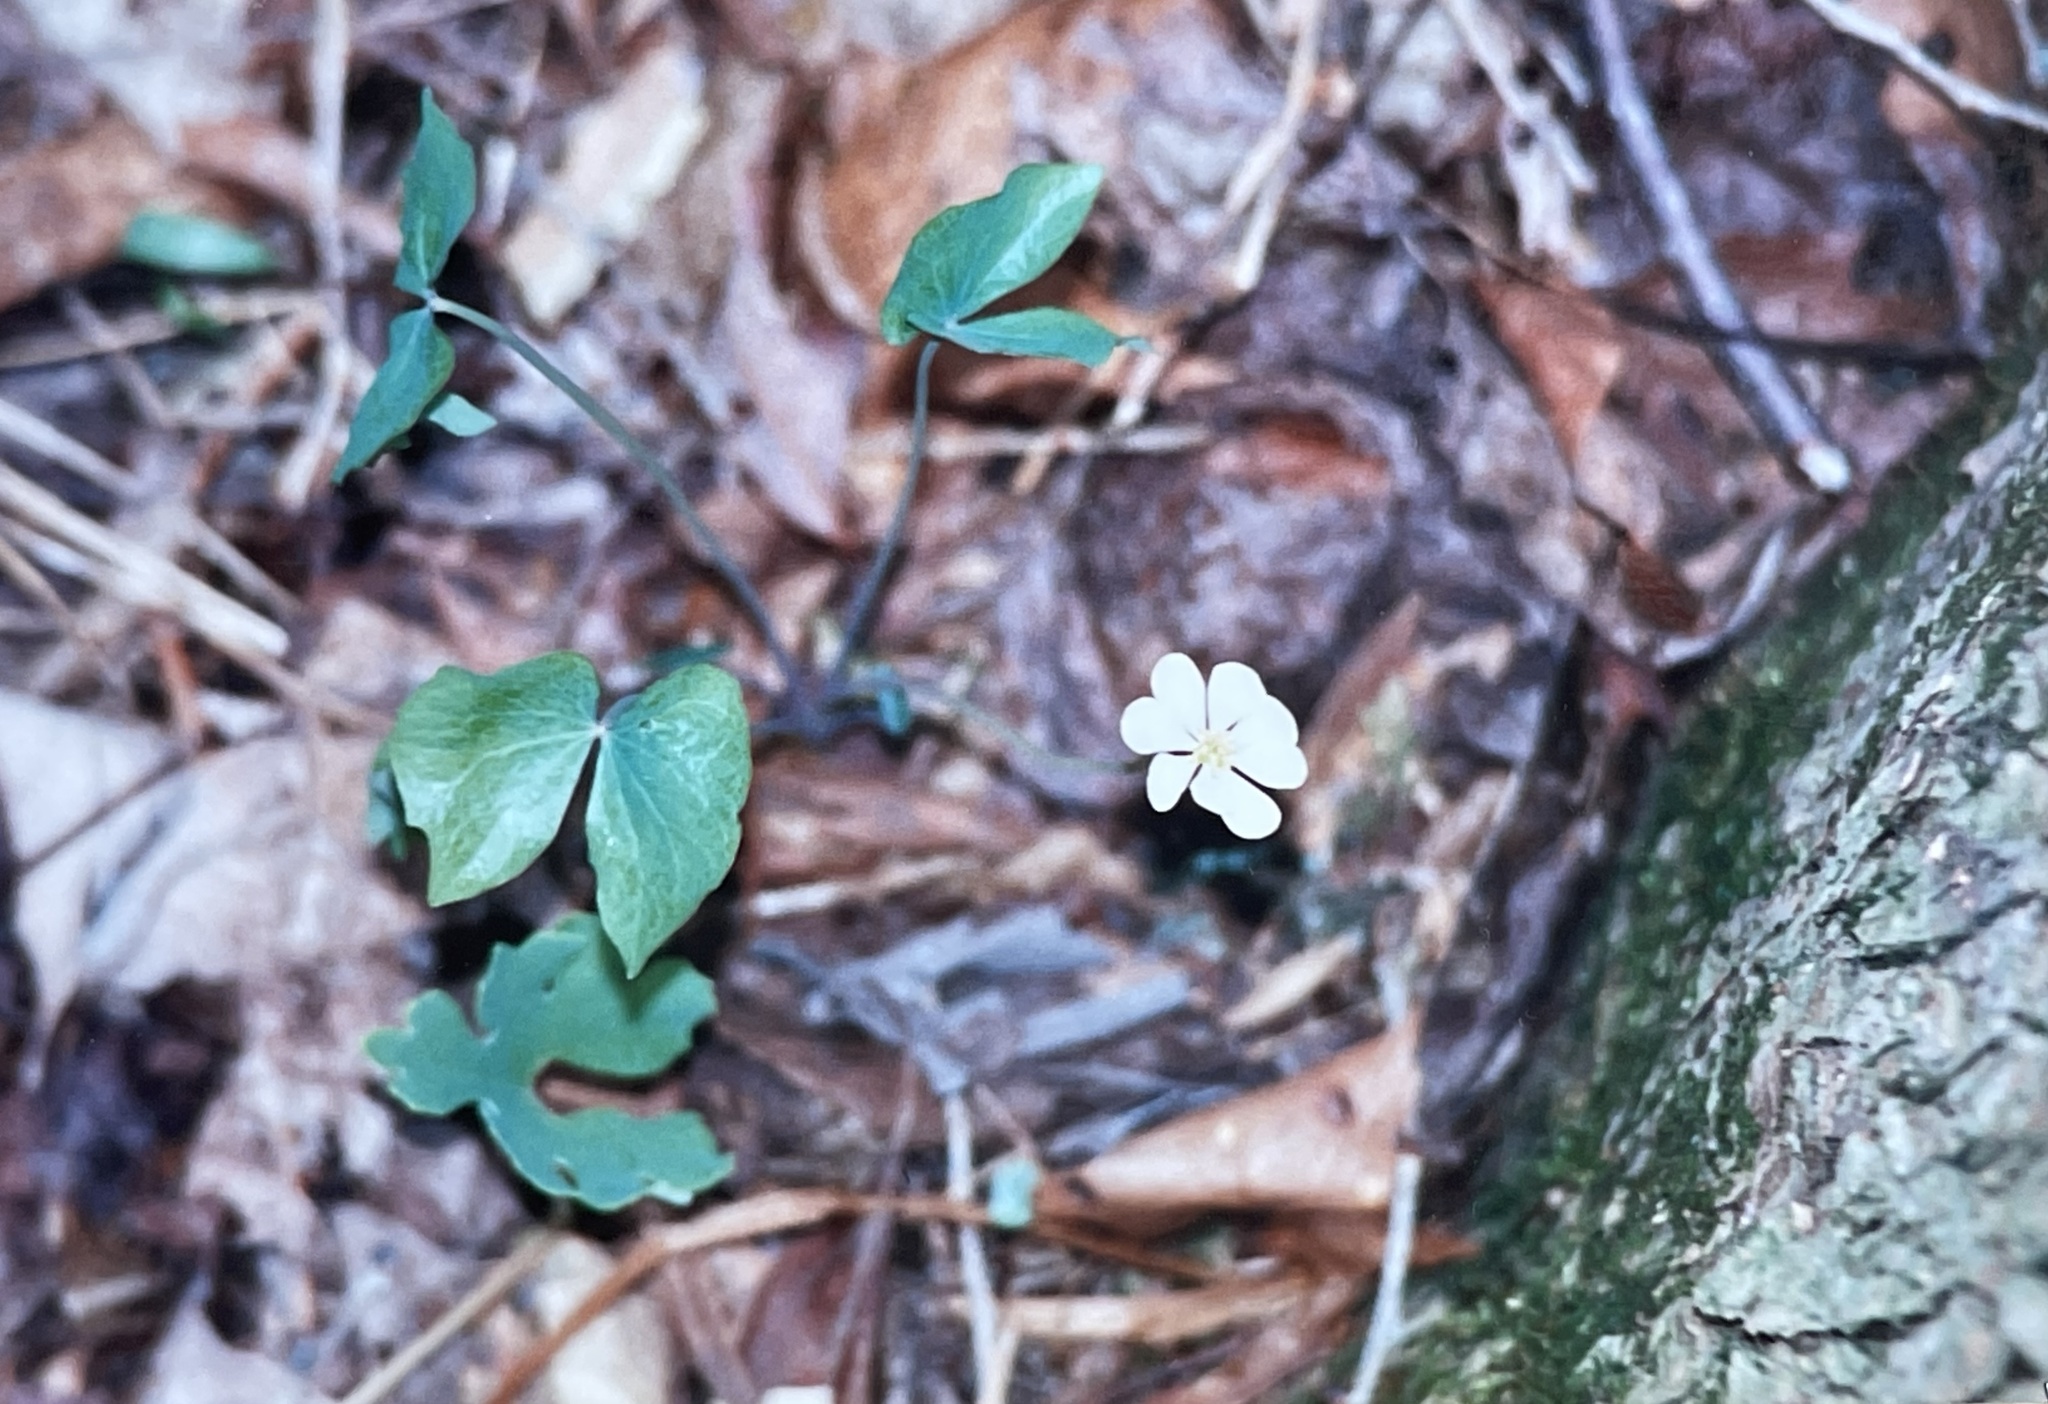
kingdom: Plantae
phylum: Tracheophyta
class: Magnoliopsida
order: Ranunculales
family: Berberidaceae
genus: Jeffersonia
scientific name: Jeffersonia diphylla
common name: Rheumatism-root
